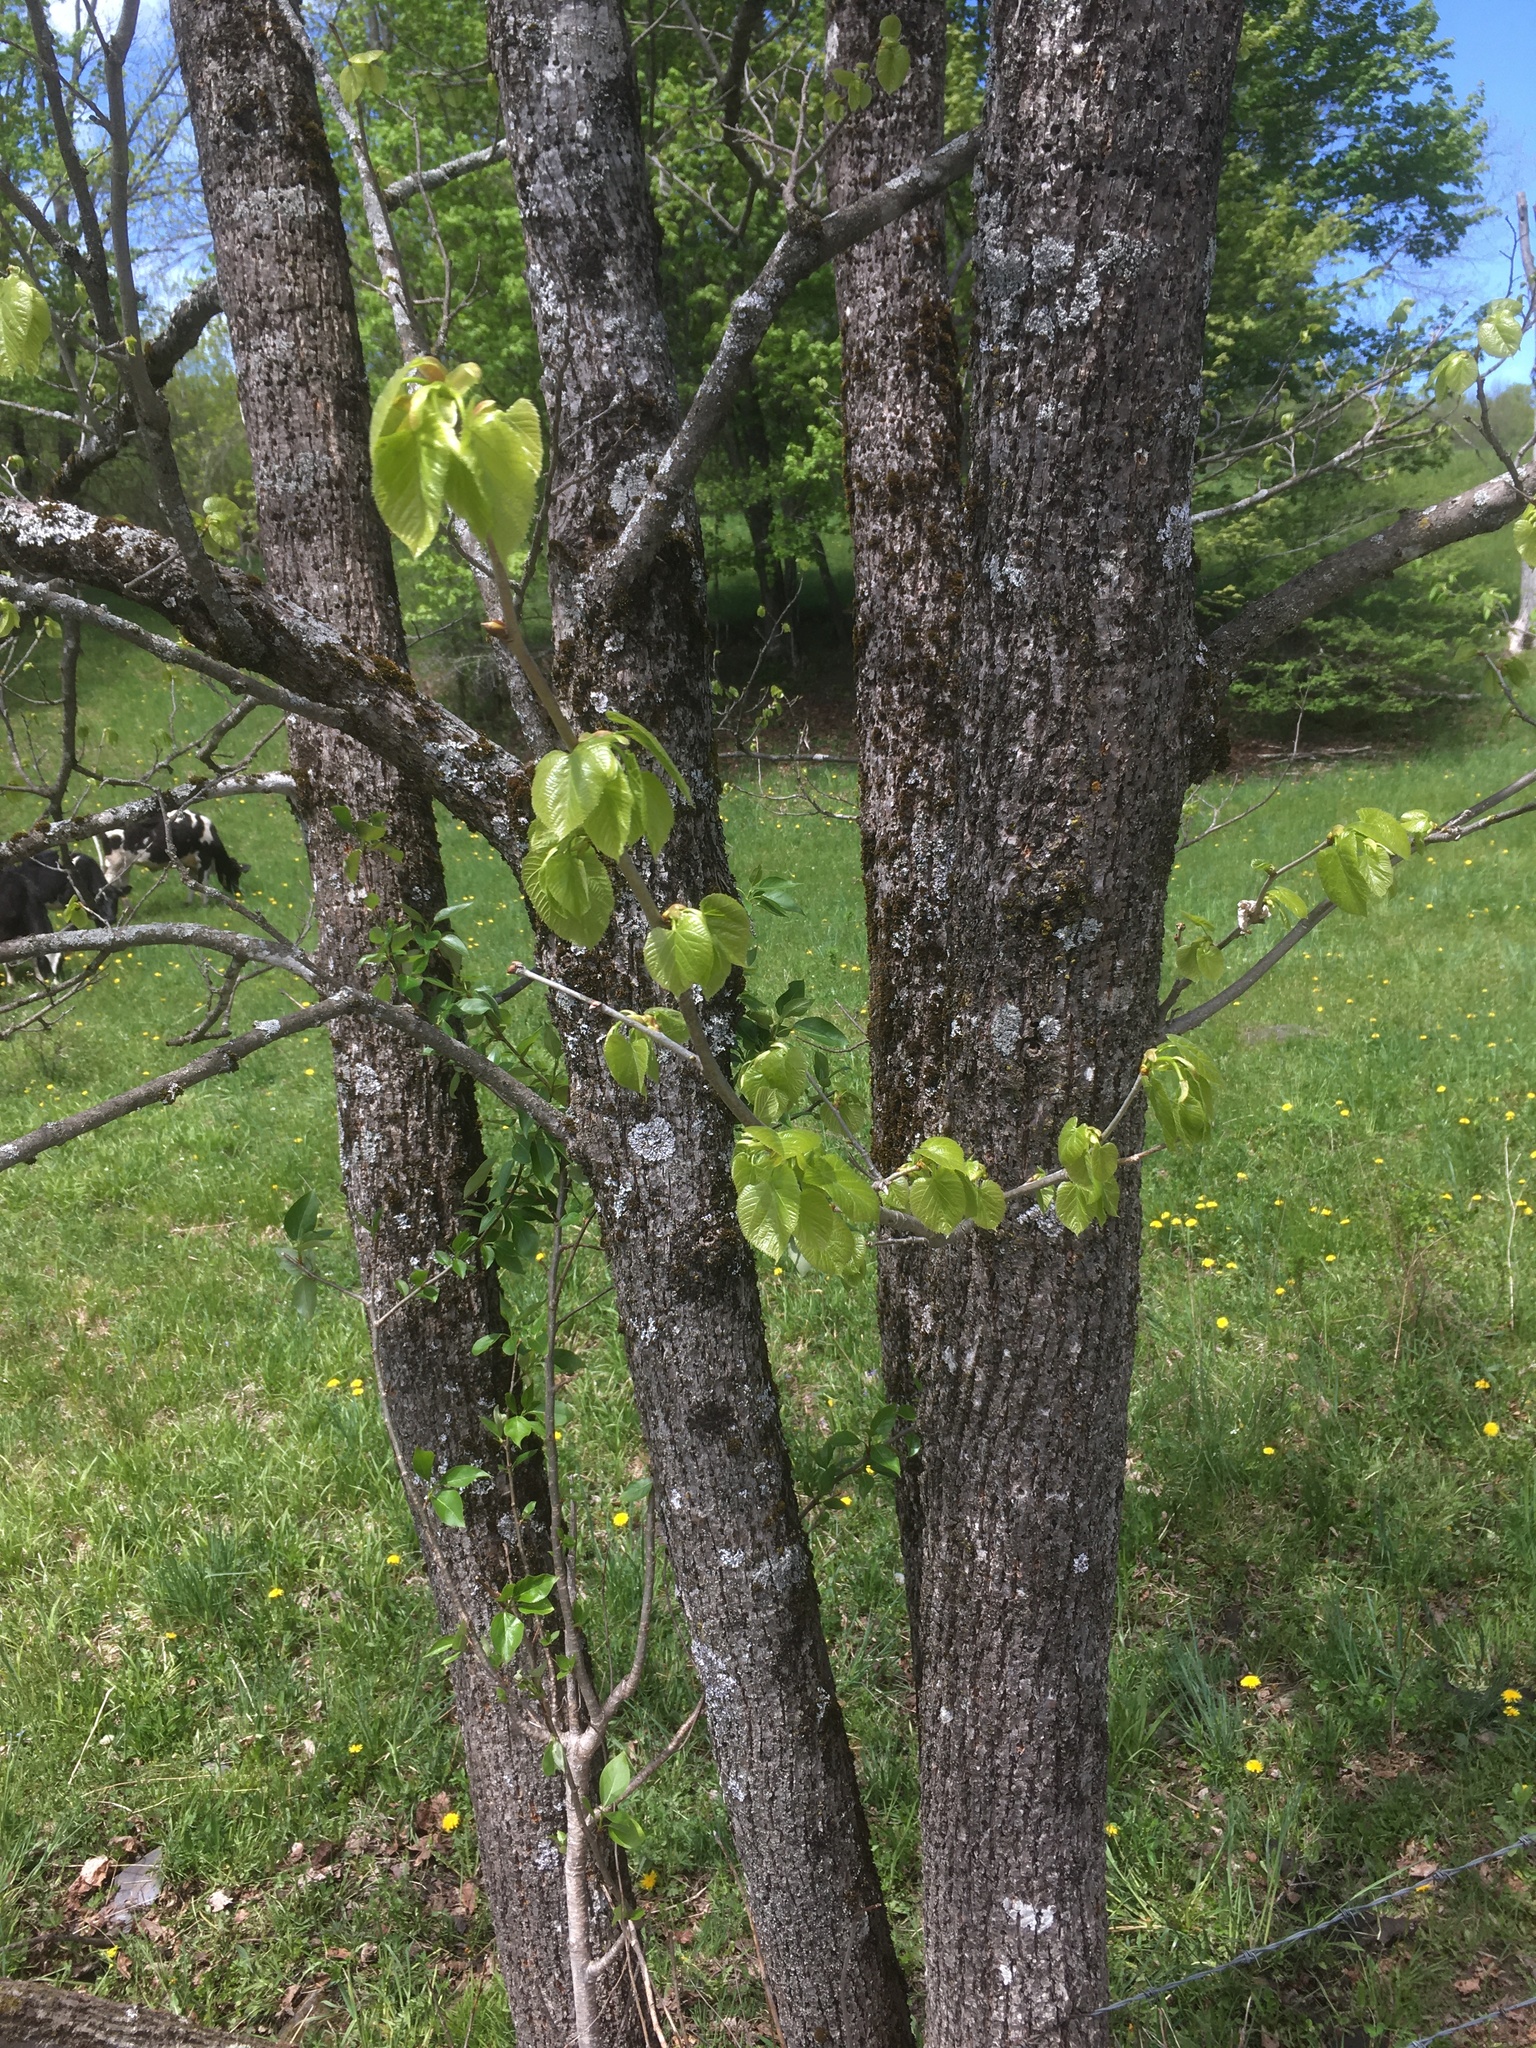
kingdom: Plantae
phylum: Tracheophyta
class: Magnoliopsida
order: Malvales
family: Malvaceae
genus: Tilia
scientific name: Tilia americana
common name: Basswood
